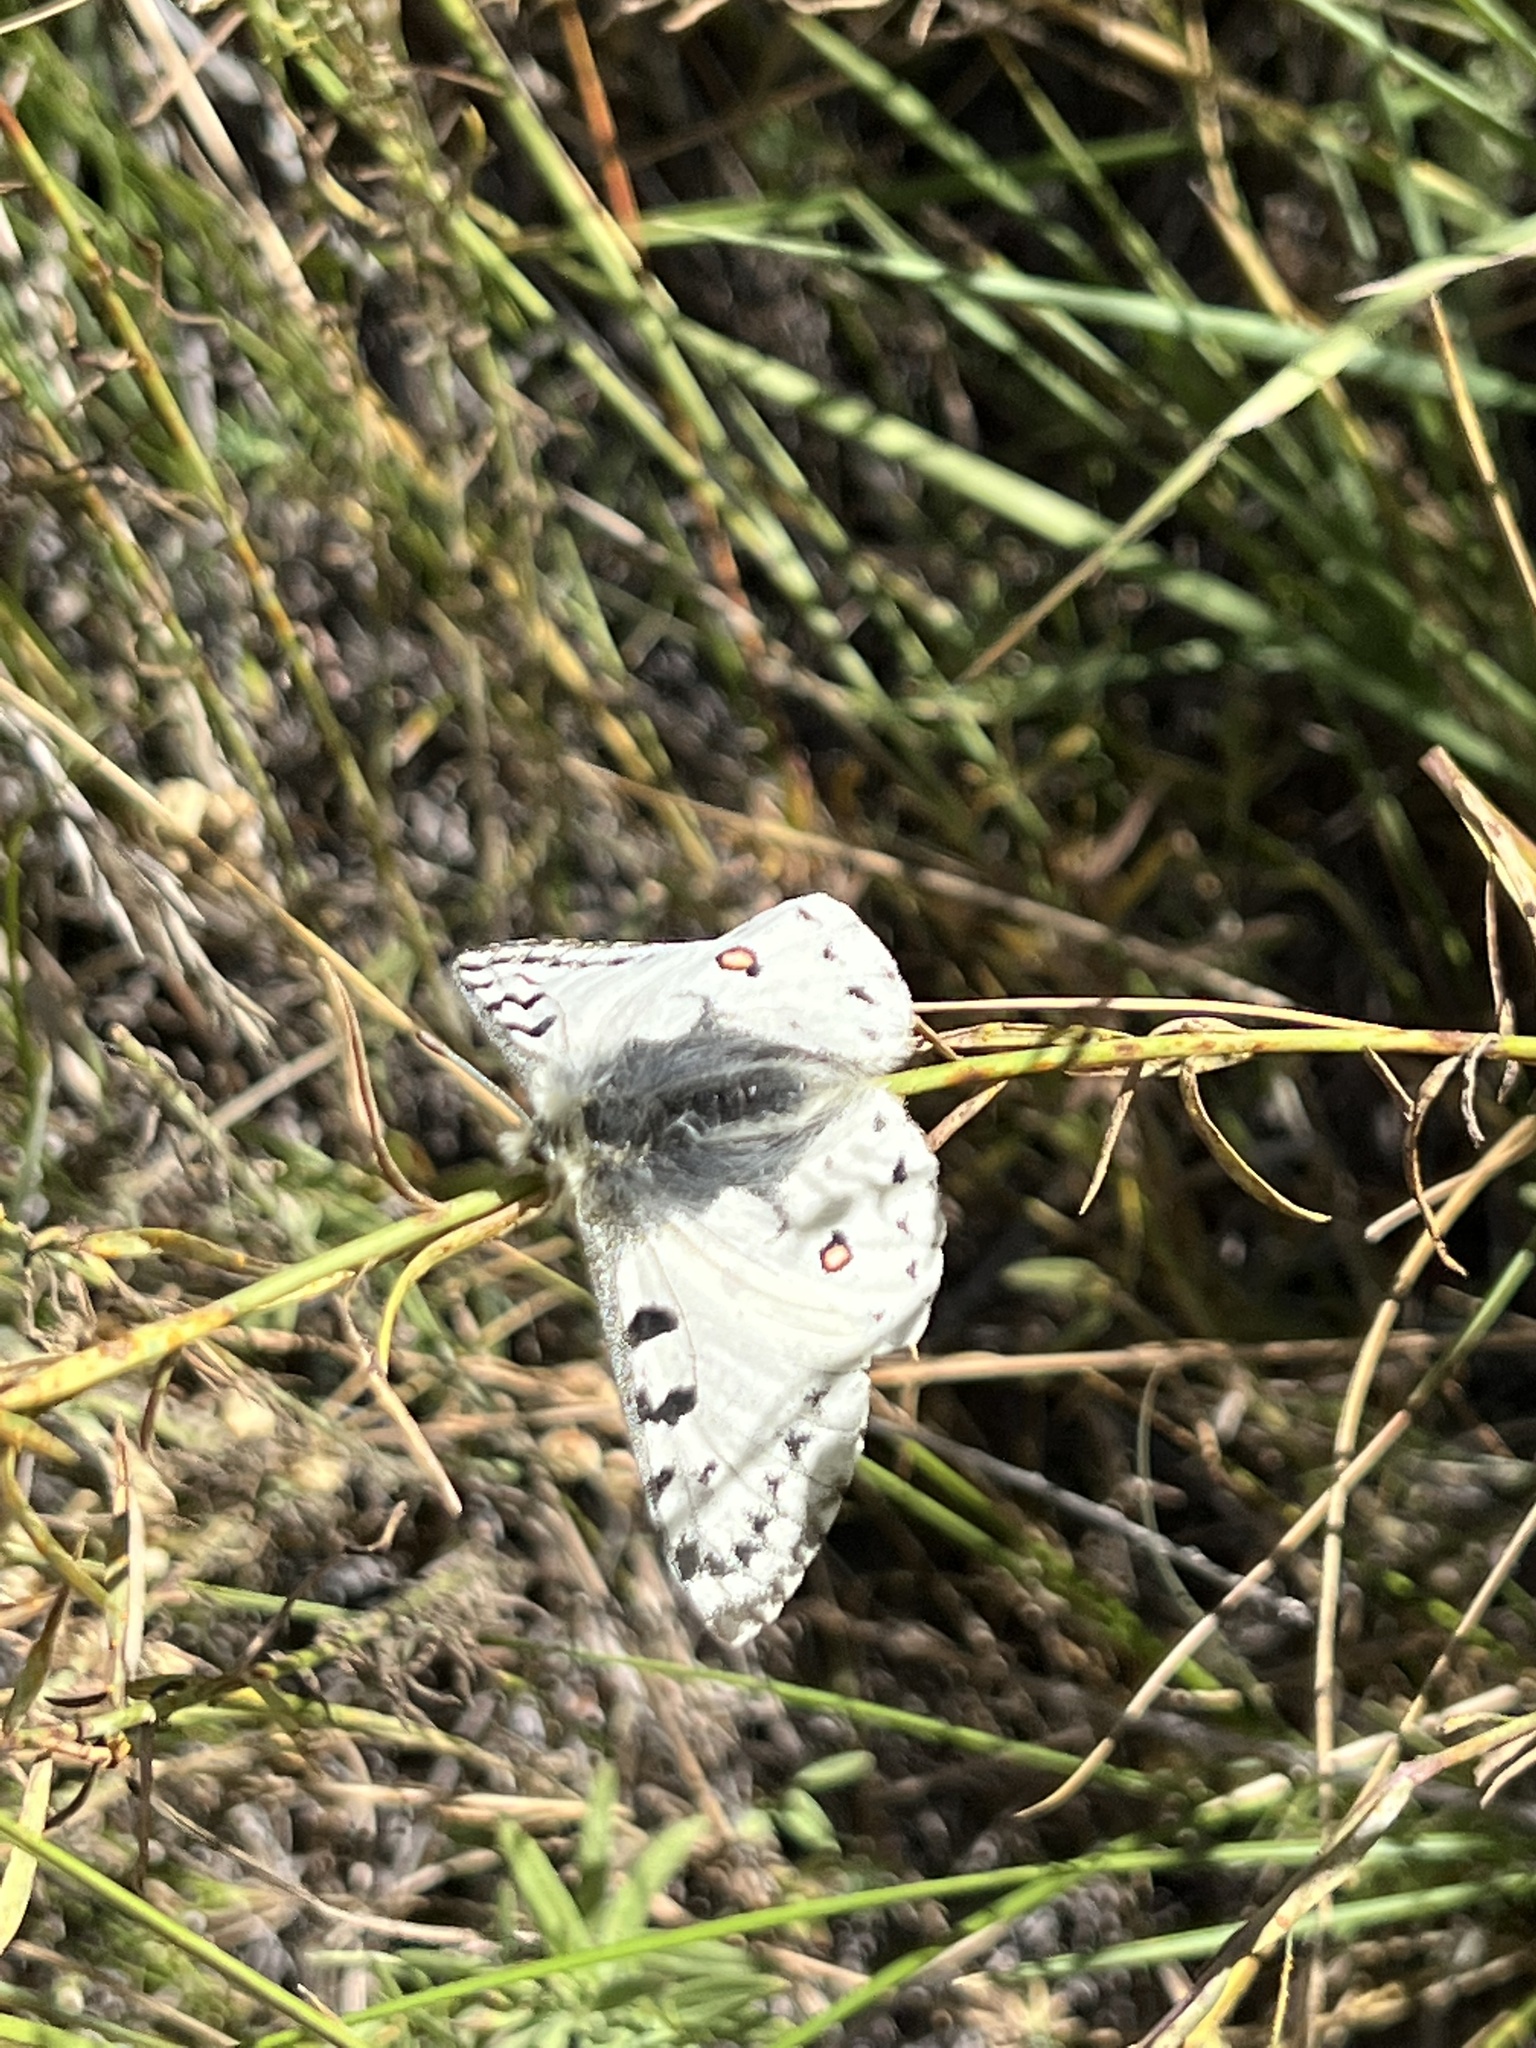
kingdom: Animalia
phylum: Arthropoda
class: Insecta
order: Lepidoptera
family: Papilionidae
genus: Parnassius
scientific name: Parnassius smintheus
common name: Mountain parnassian
